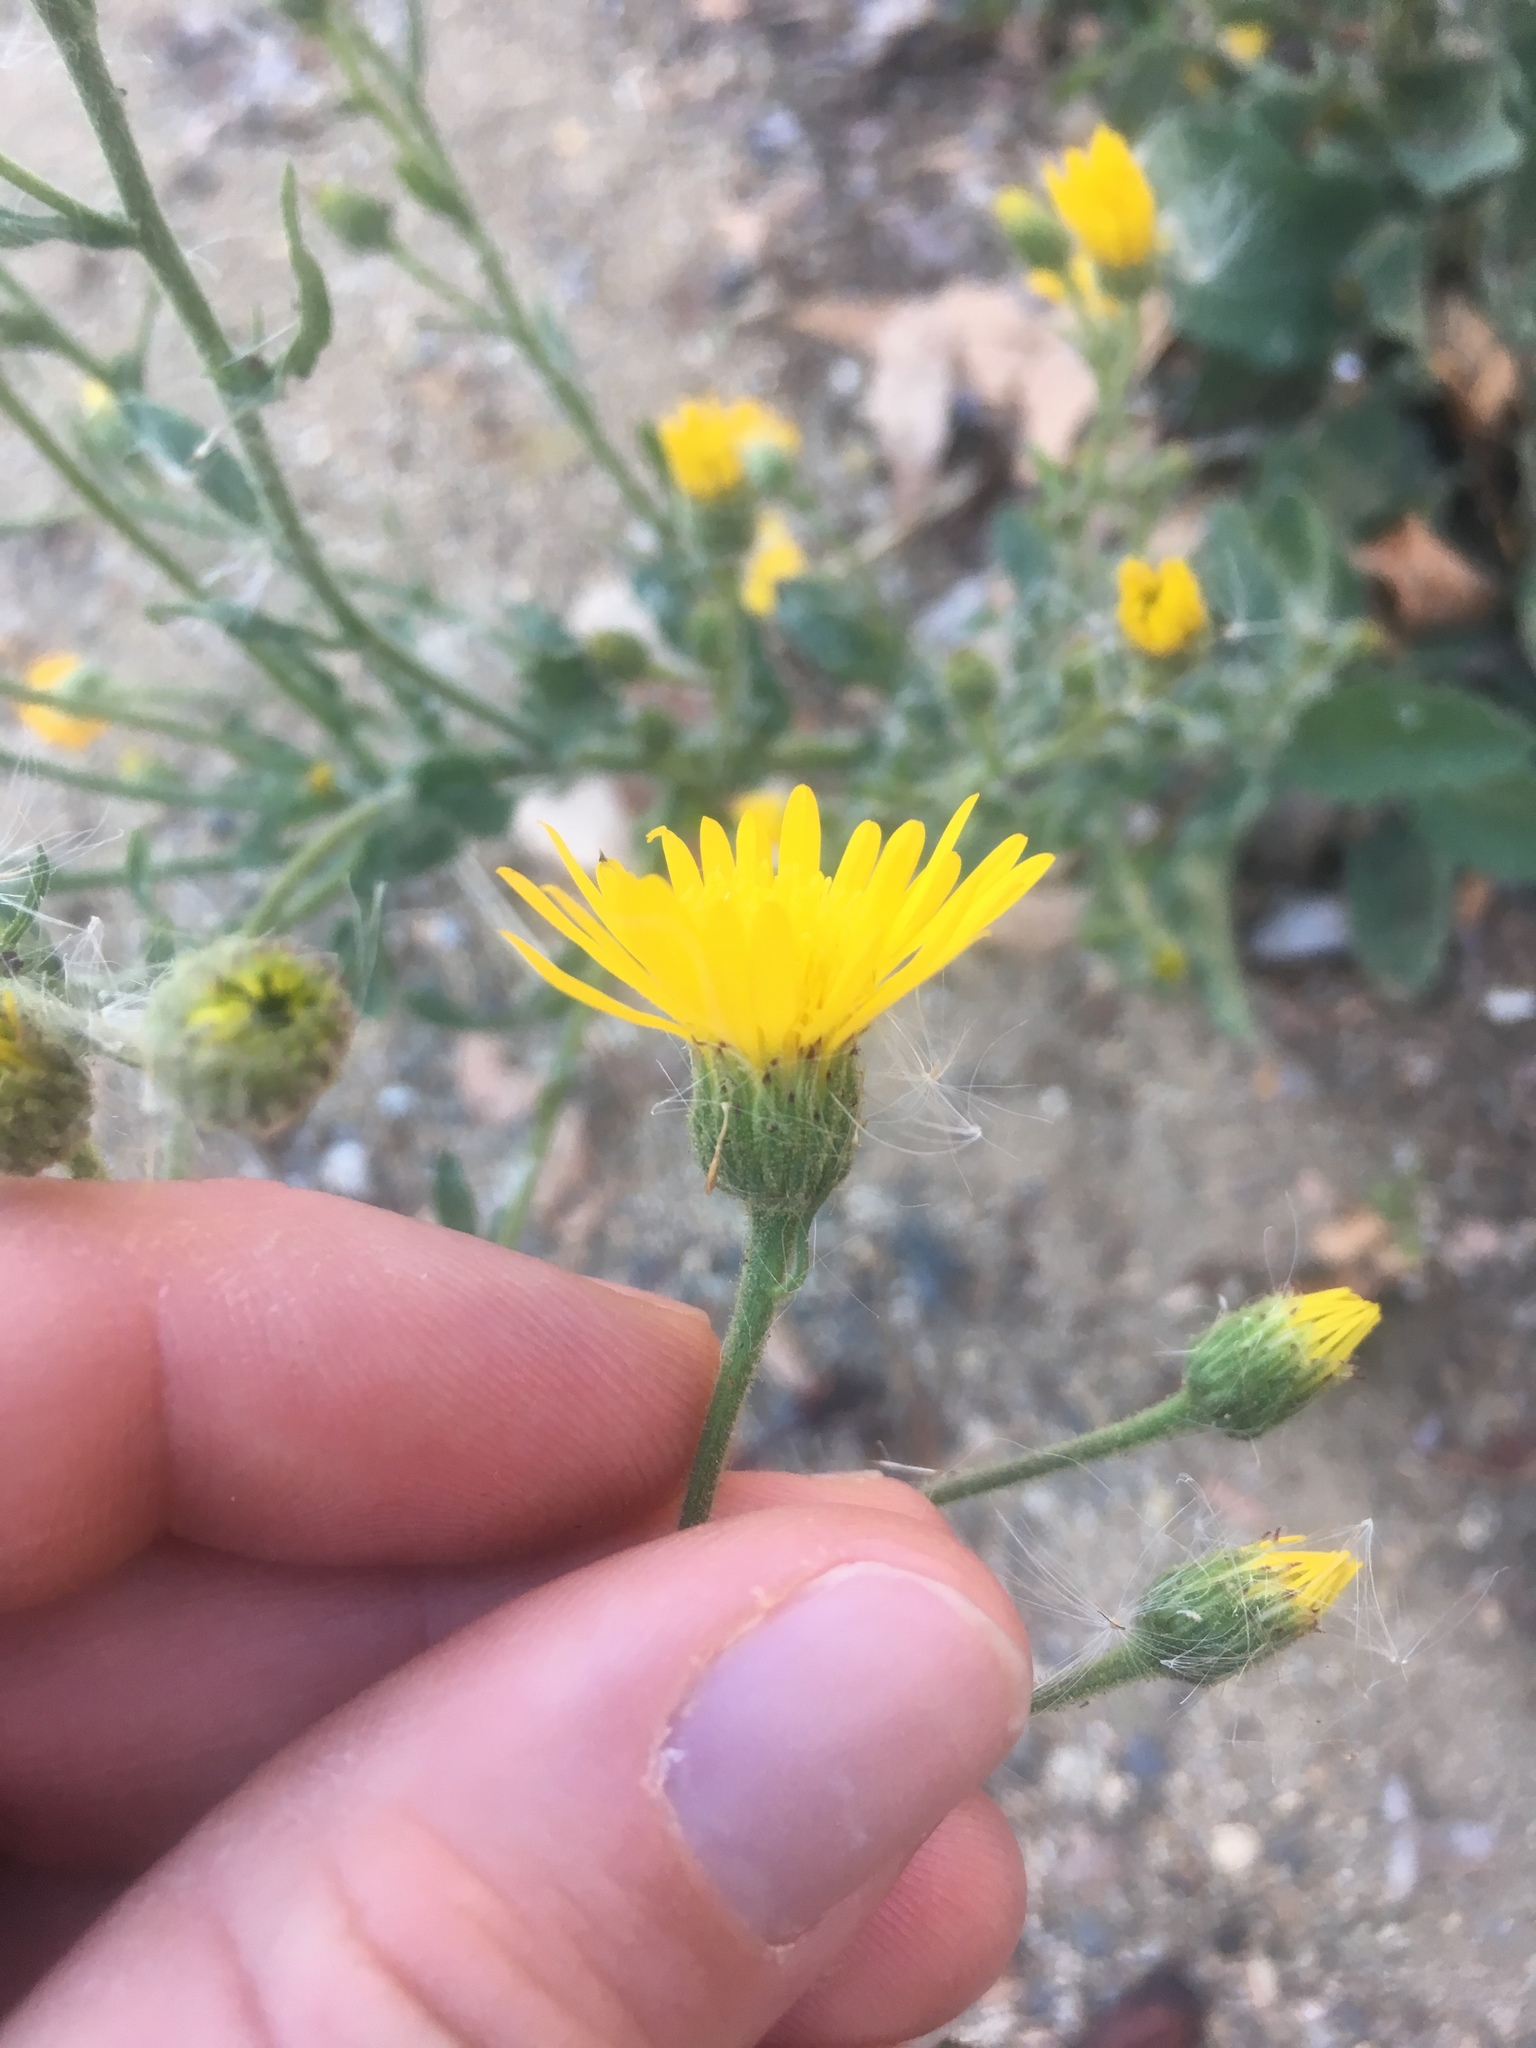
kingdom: Plantae
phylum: Tracheophyta
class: Magnoliopsida
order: Asterales
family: Asteraceae
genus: Heterotheca
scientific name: Heterotheca grandiflora
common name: Telegraphweed
